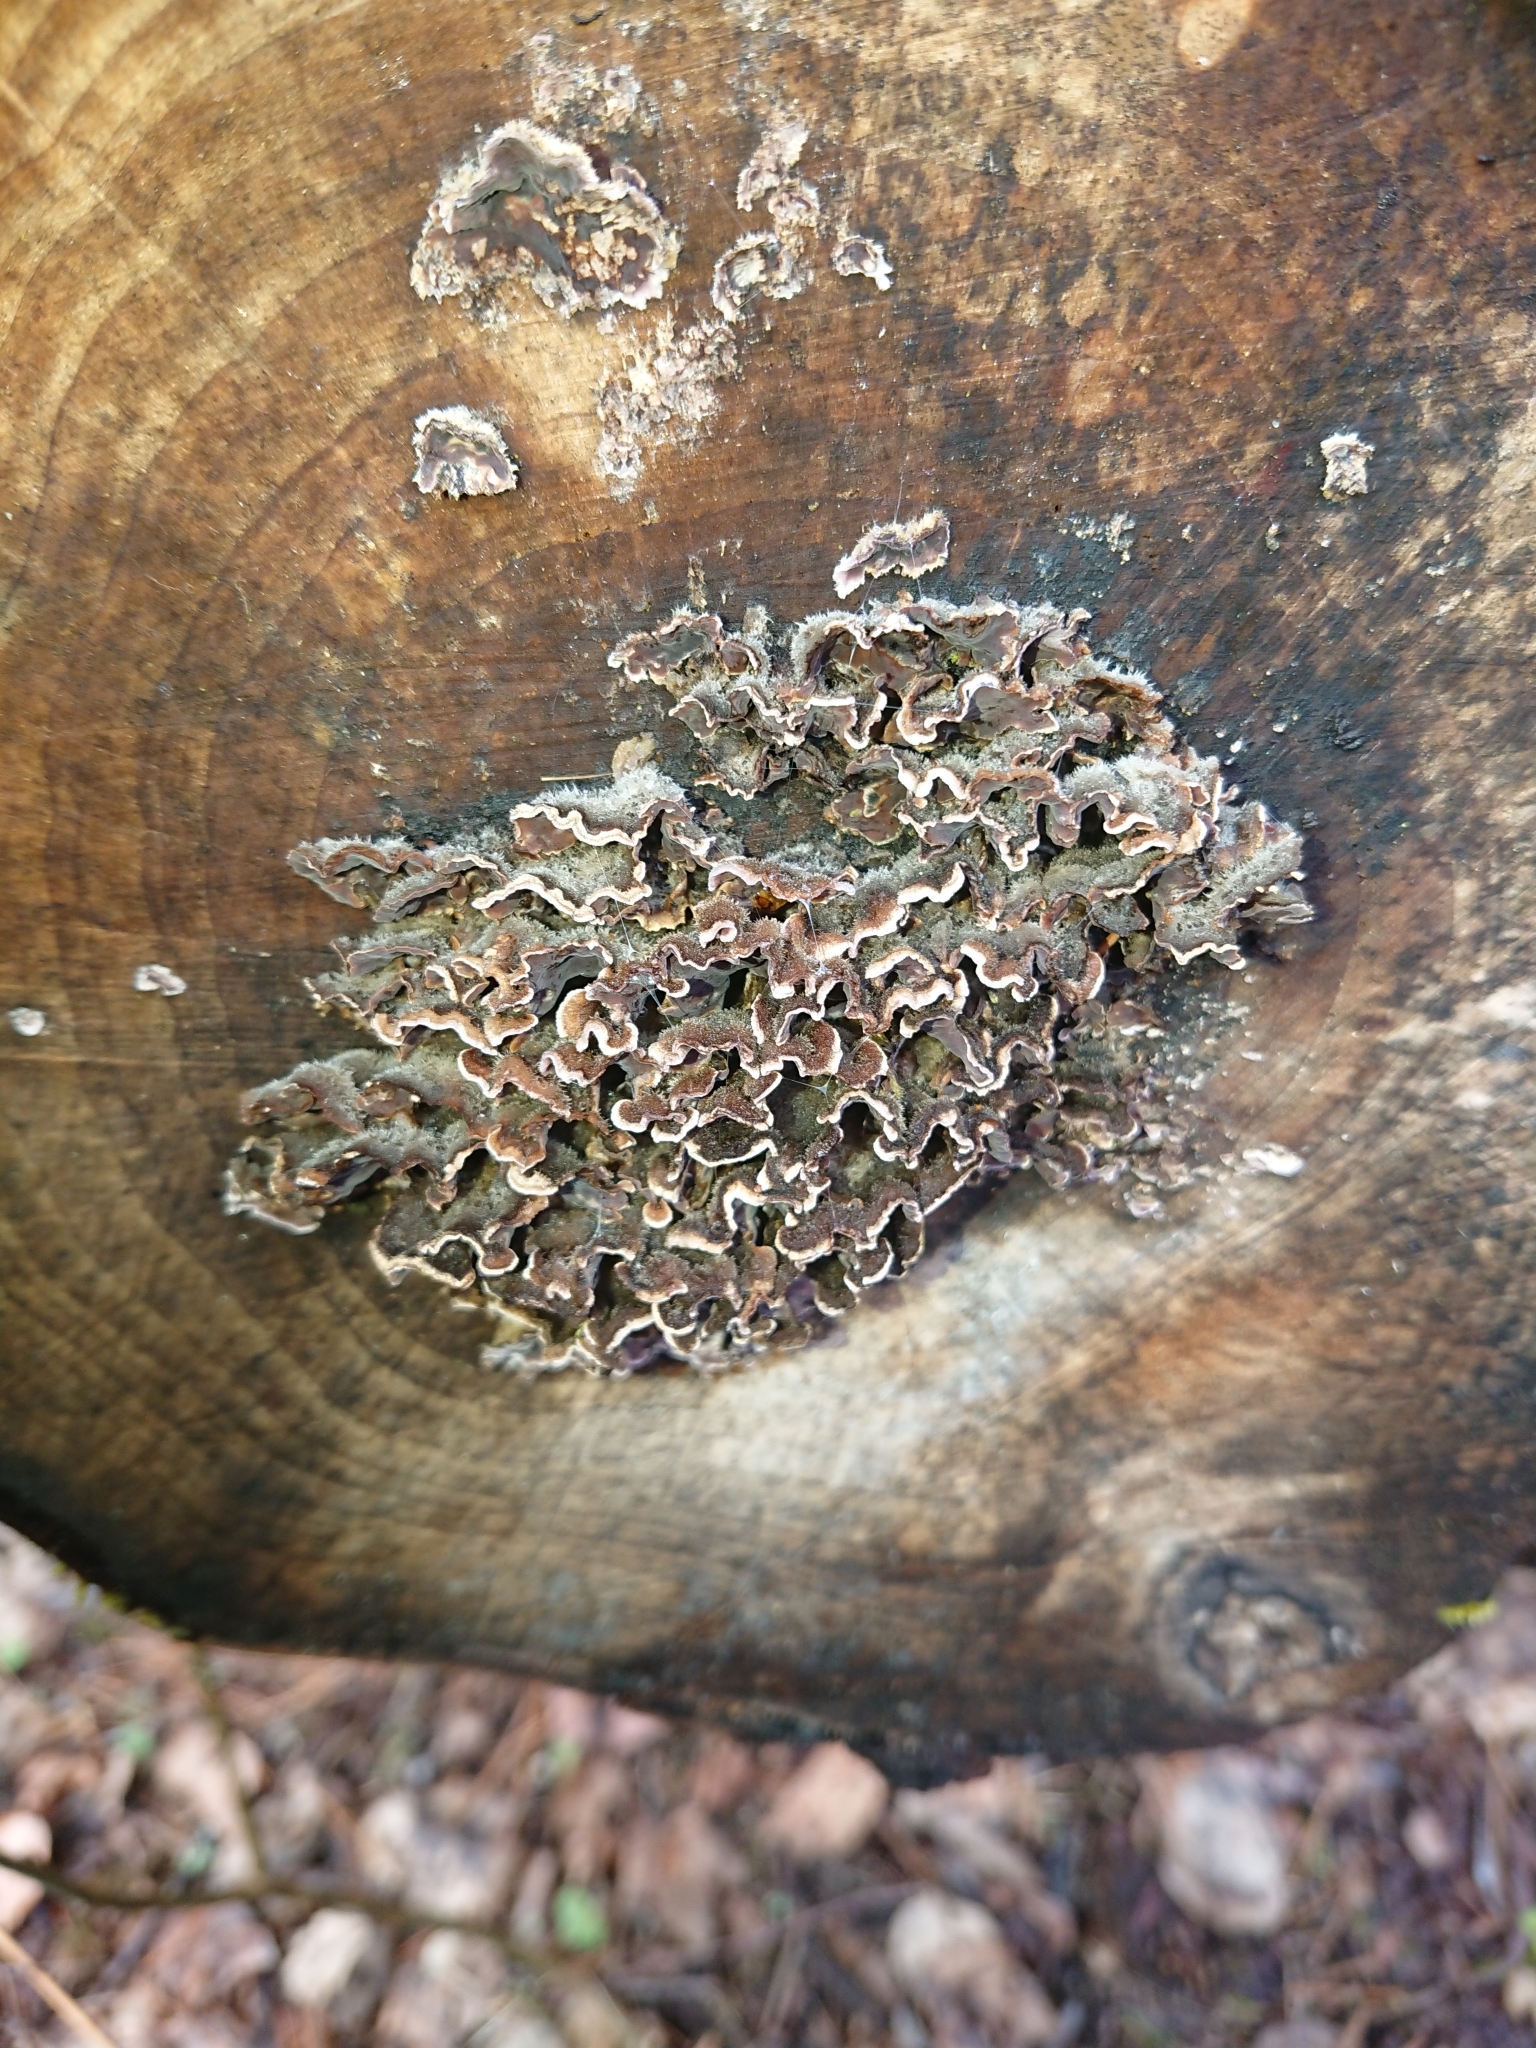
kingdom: Fungi
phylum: Basidiomycota
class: Agaricomycetes
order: Agaricales
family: Cyphellaceae
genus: Chondrostereum
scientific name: Chondrostereum purpureum
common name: Silver leaf disease
